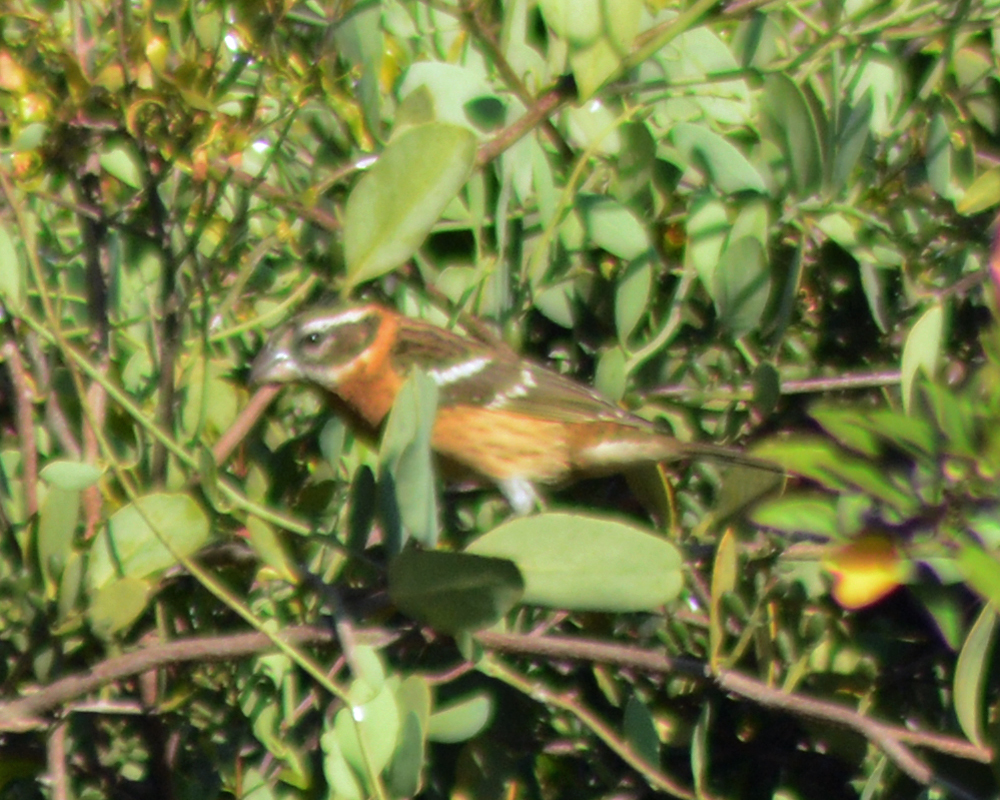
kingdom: Animalia
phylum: Chordata
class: Aves
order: Passeriformes
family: Cardinalidae
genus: Pheucticus
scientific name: Pheucticus melanocephalus
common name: Black-headed grosbeak
